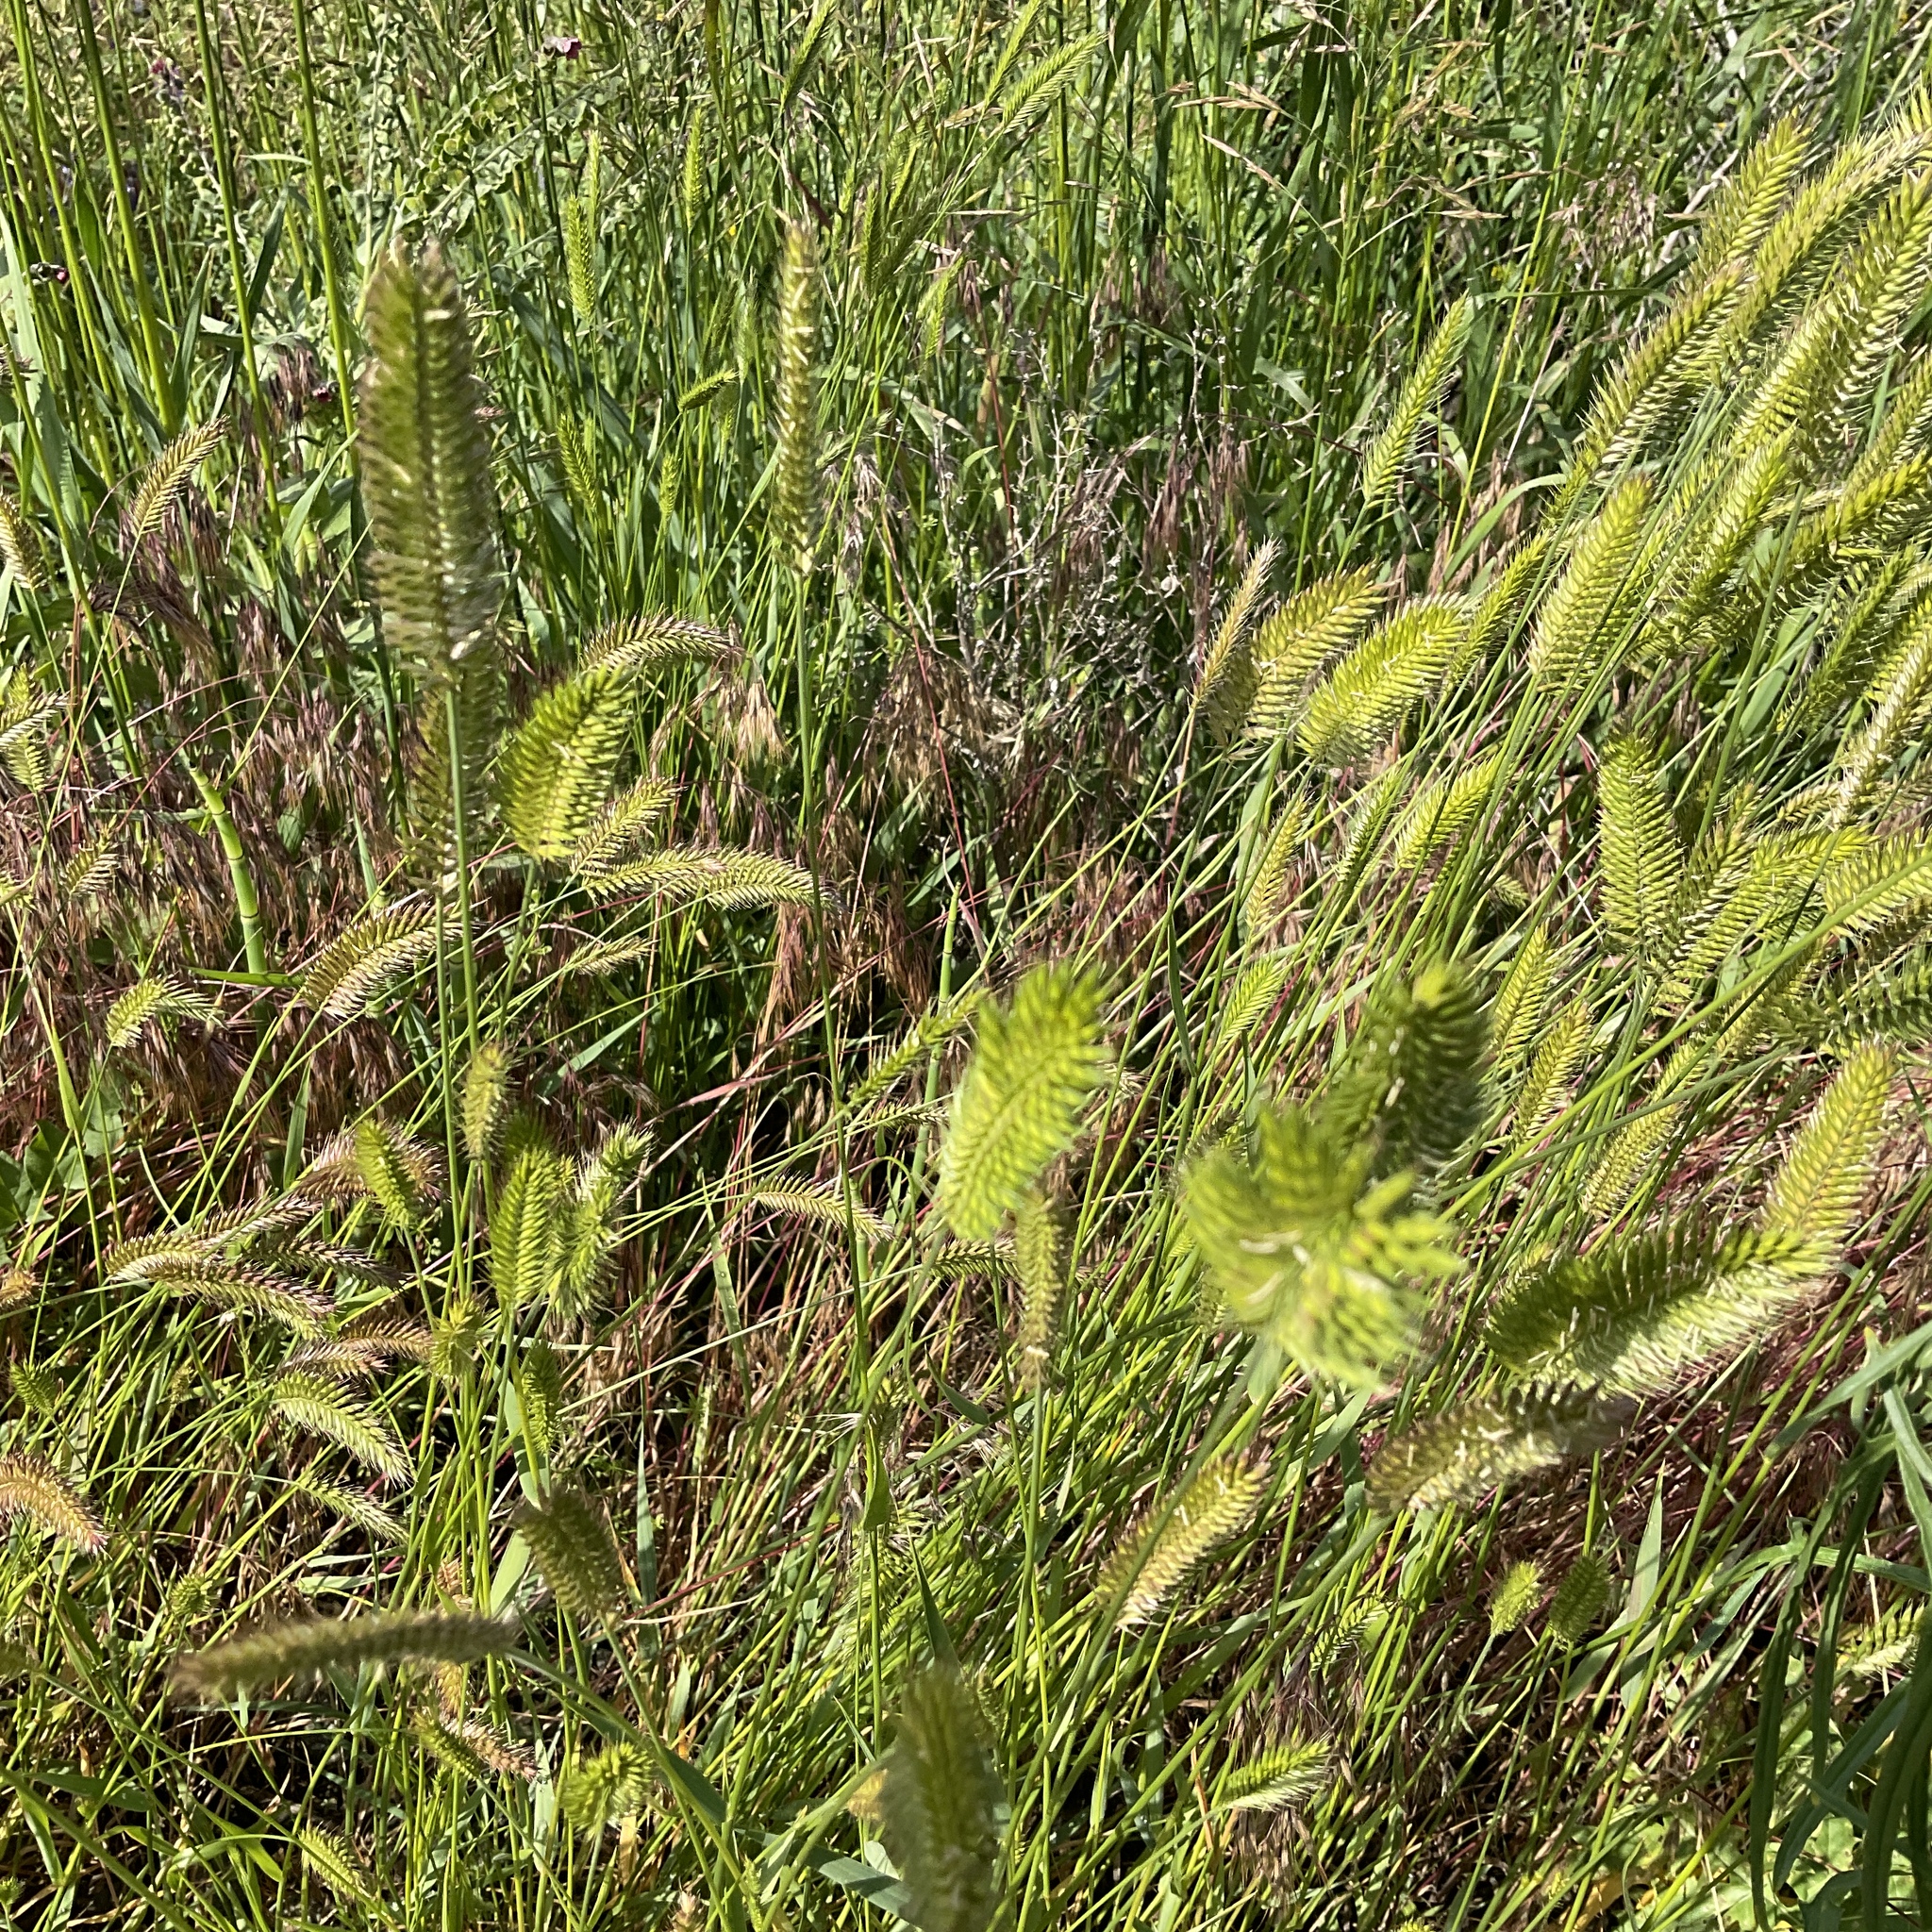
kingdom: Plantae
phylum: Tracheophyta
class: Liliopsida
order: Poales
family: Poaceae
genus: Agropyron
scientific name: Agropyron cristatum
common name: Crested wheatgrass
